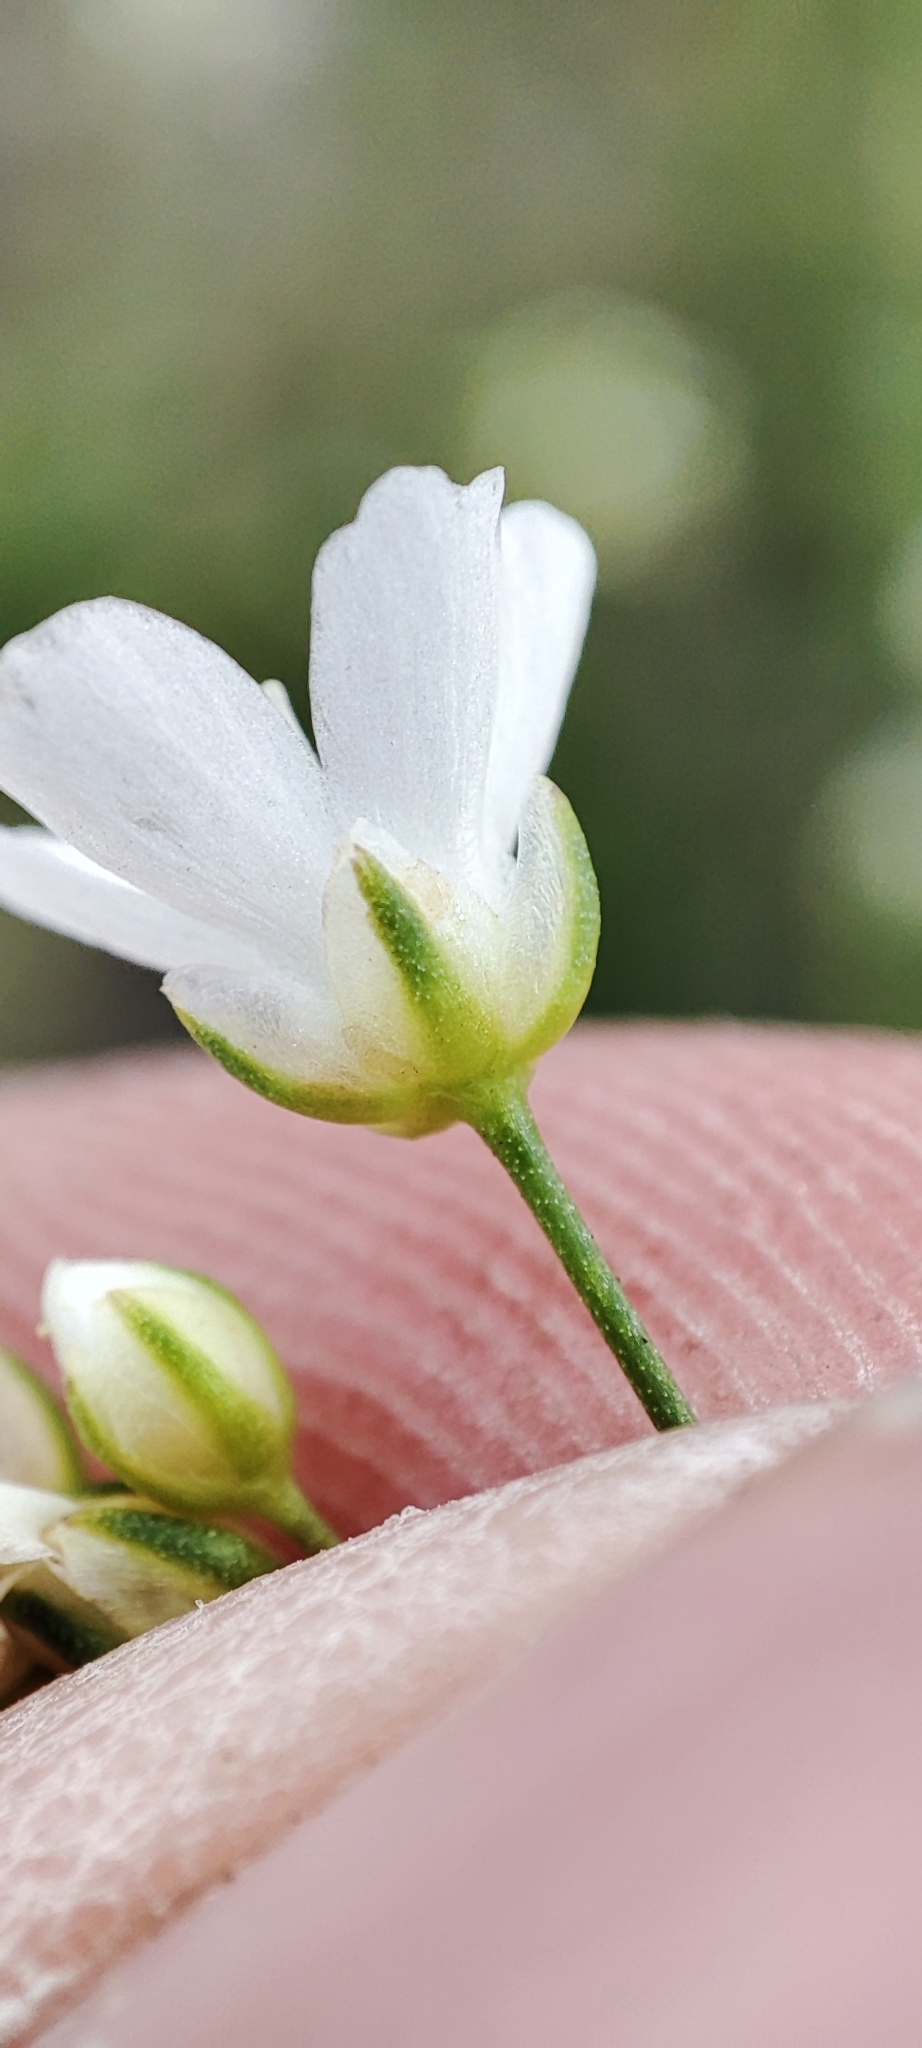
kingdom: Plantae
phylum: Tracheophyta
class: Magnoliopsida
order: Caryophyllales
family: Caryophyllaceae
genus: Eremogone
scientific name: Eremogone saxatilis
